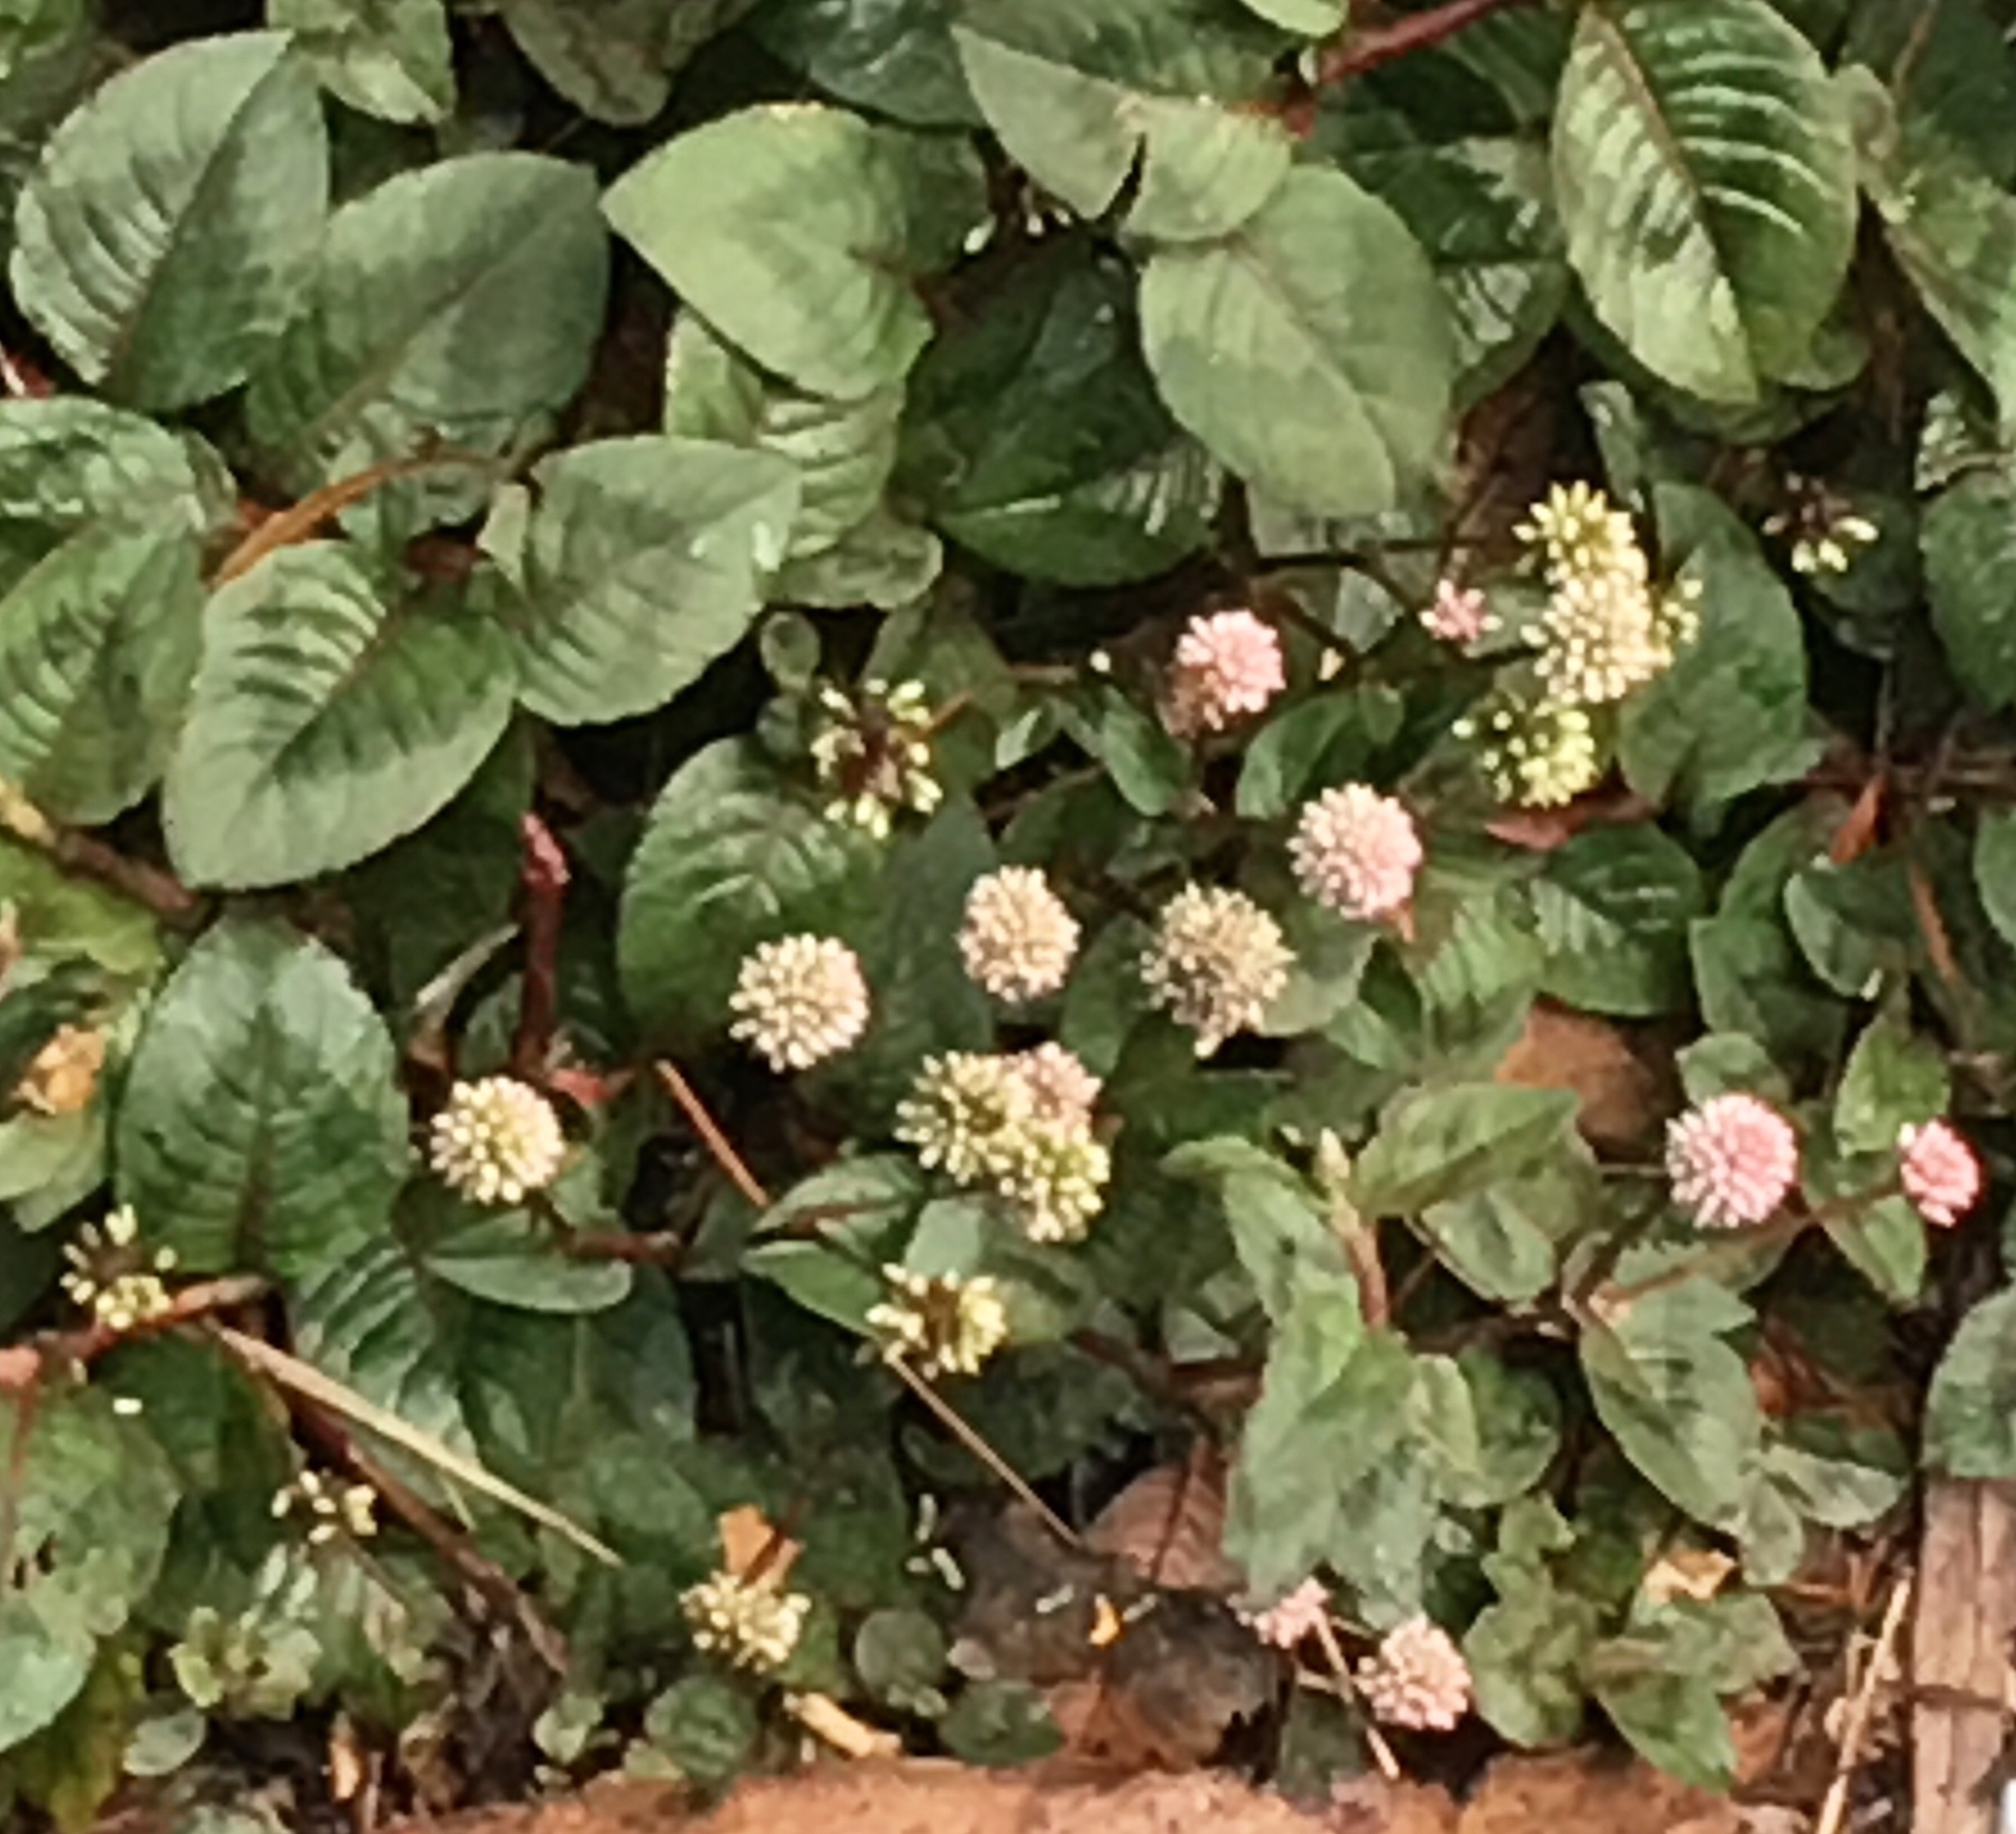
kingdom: Plantae
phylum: Tracheophyta
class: Magnoliopsida
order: Caryophyllales
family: Polygonaceae
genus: Persicaria
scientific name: Persicaria capitata
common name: Pinkhead smartweed
